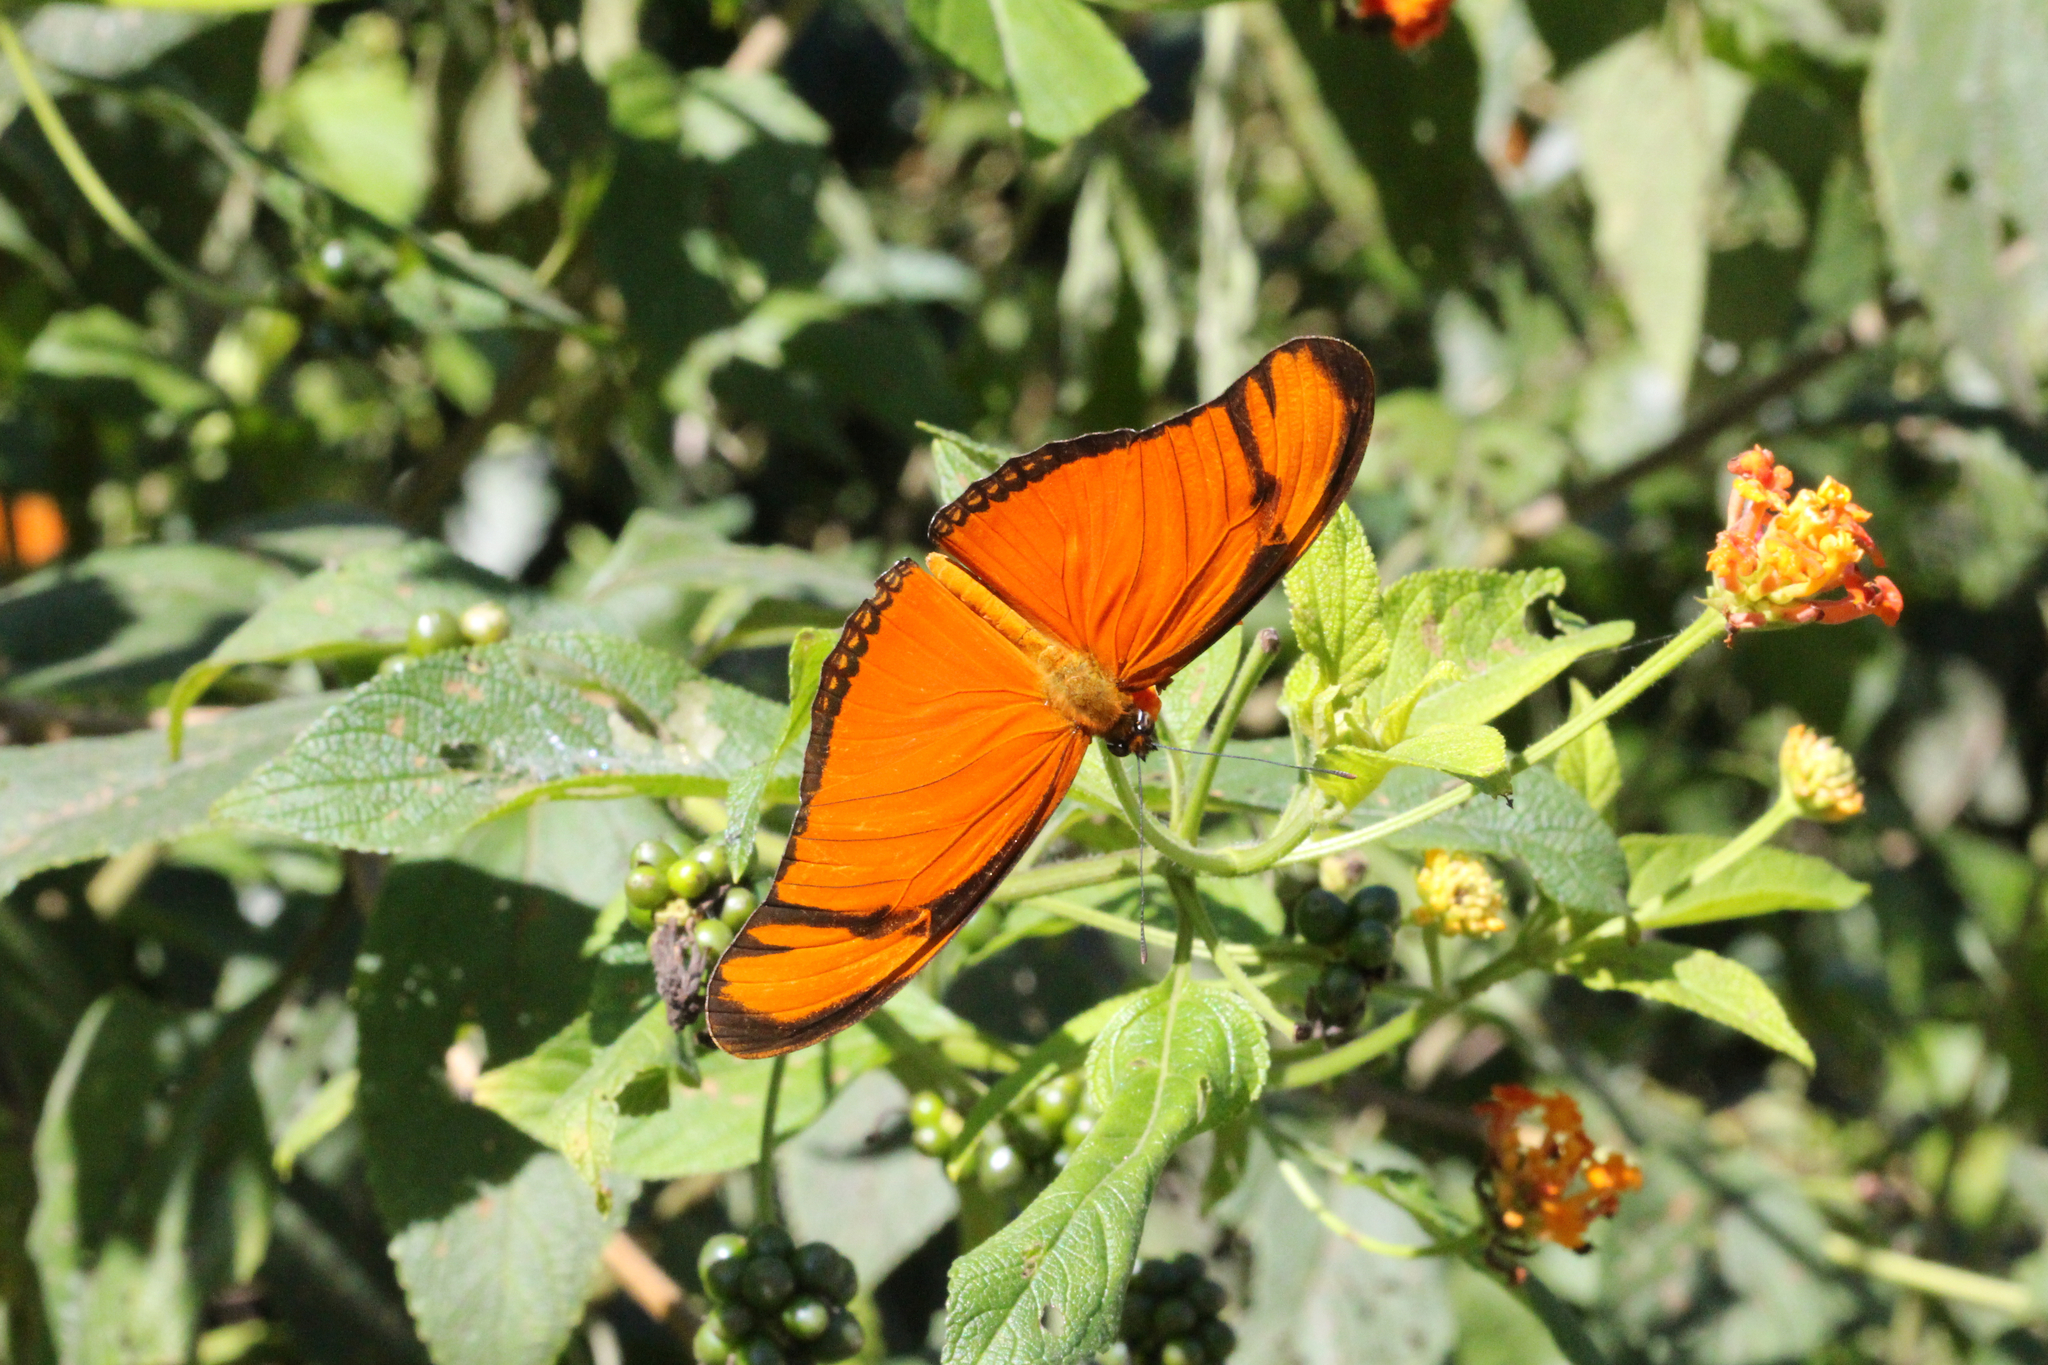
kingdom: Animalia
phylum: Arthropoda
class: Insecta
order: Lepidoptera
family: Nymphalidae
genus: Dryas
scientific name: Dryas iulia
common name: Flambeau
